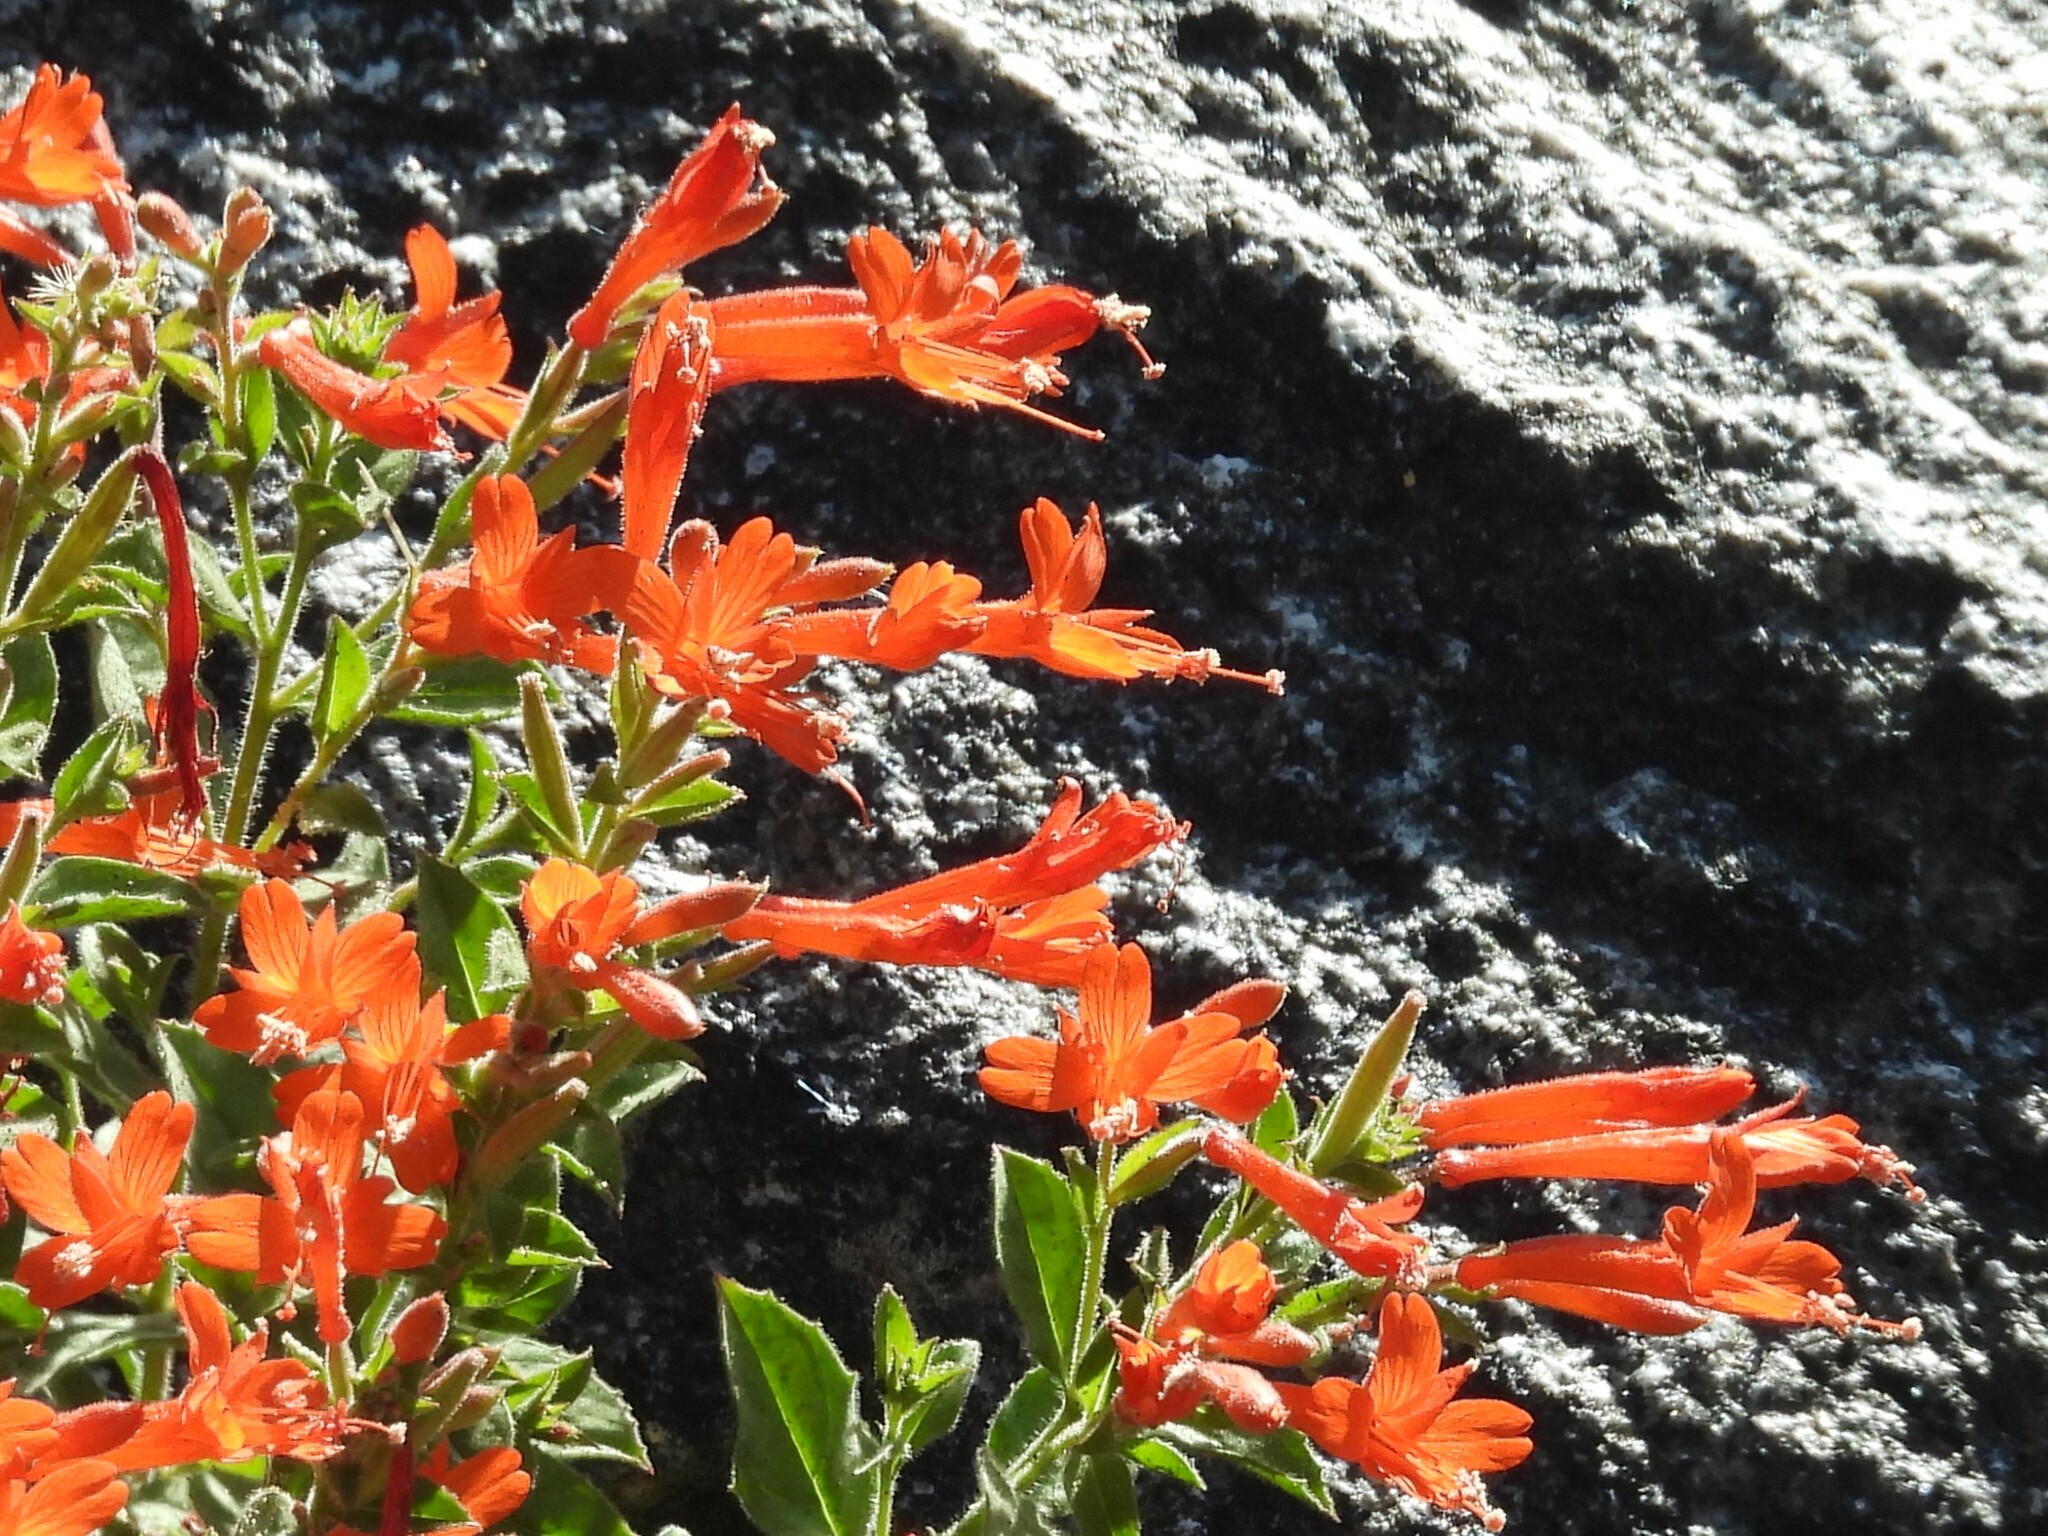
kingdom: Plantae
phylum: Tracheophyta
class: Magnoliopsida
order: Myrtales
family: Onagraceae
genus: Epilobium
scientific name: Epilobium canum
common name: California-fuchsia
